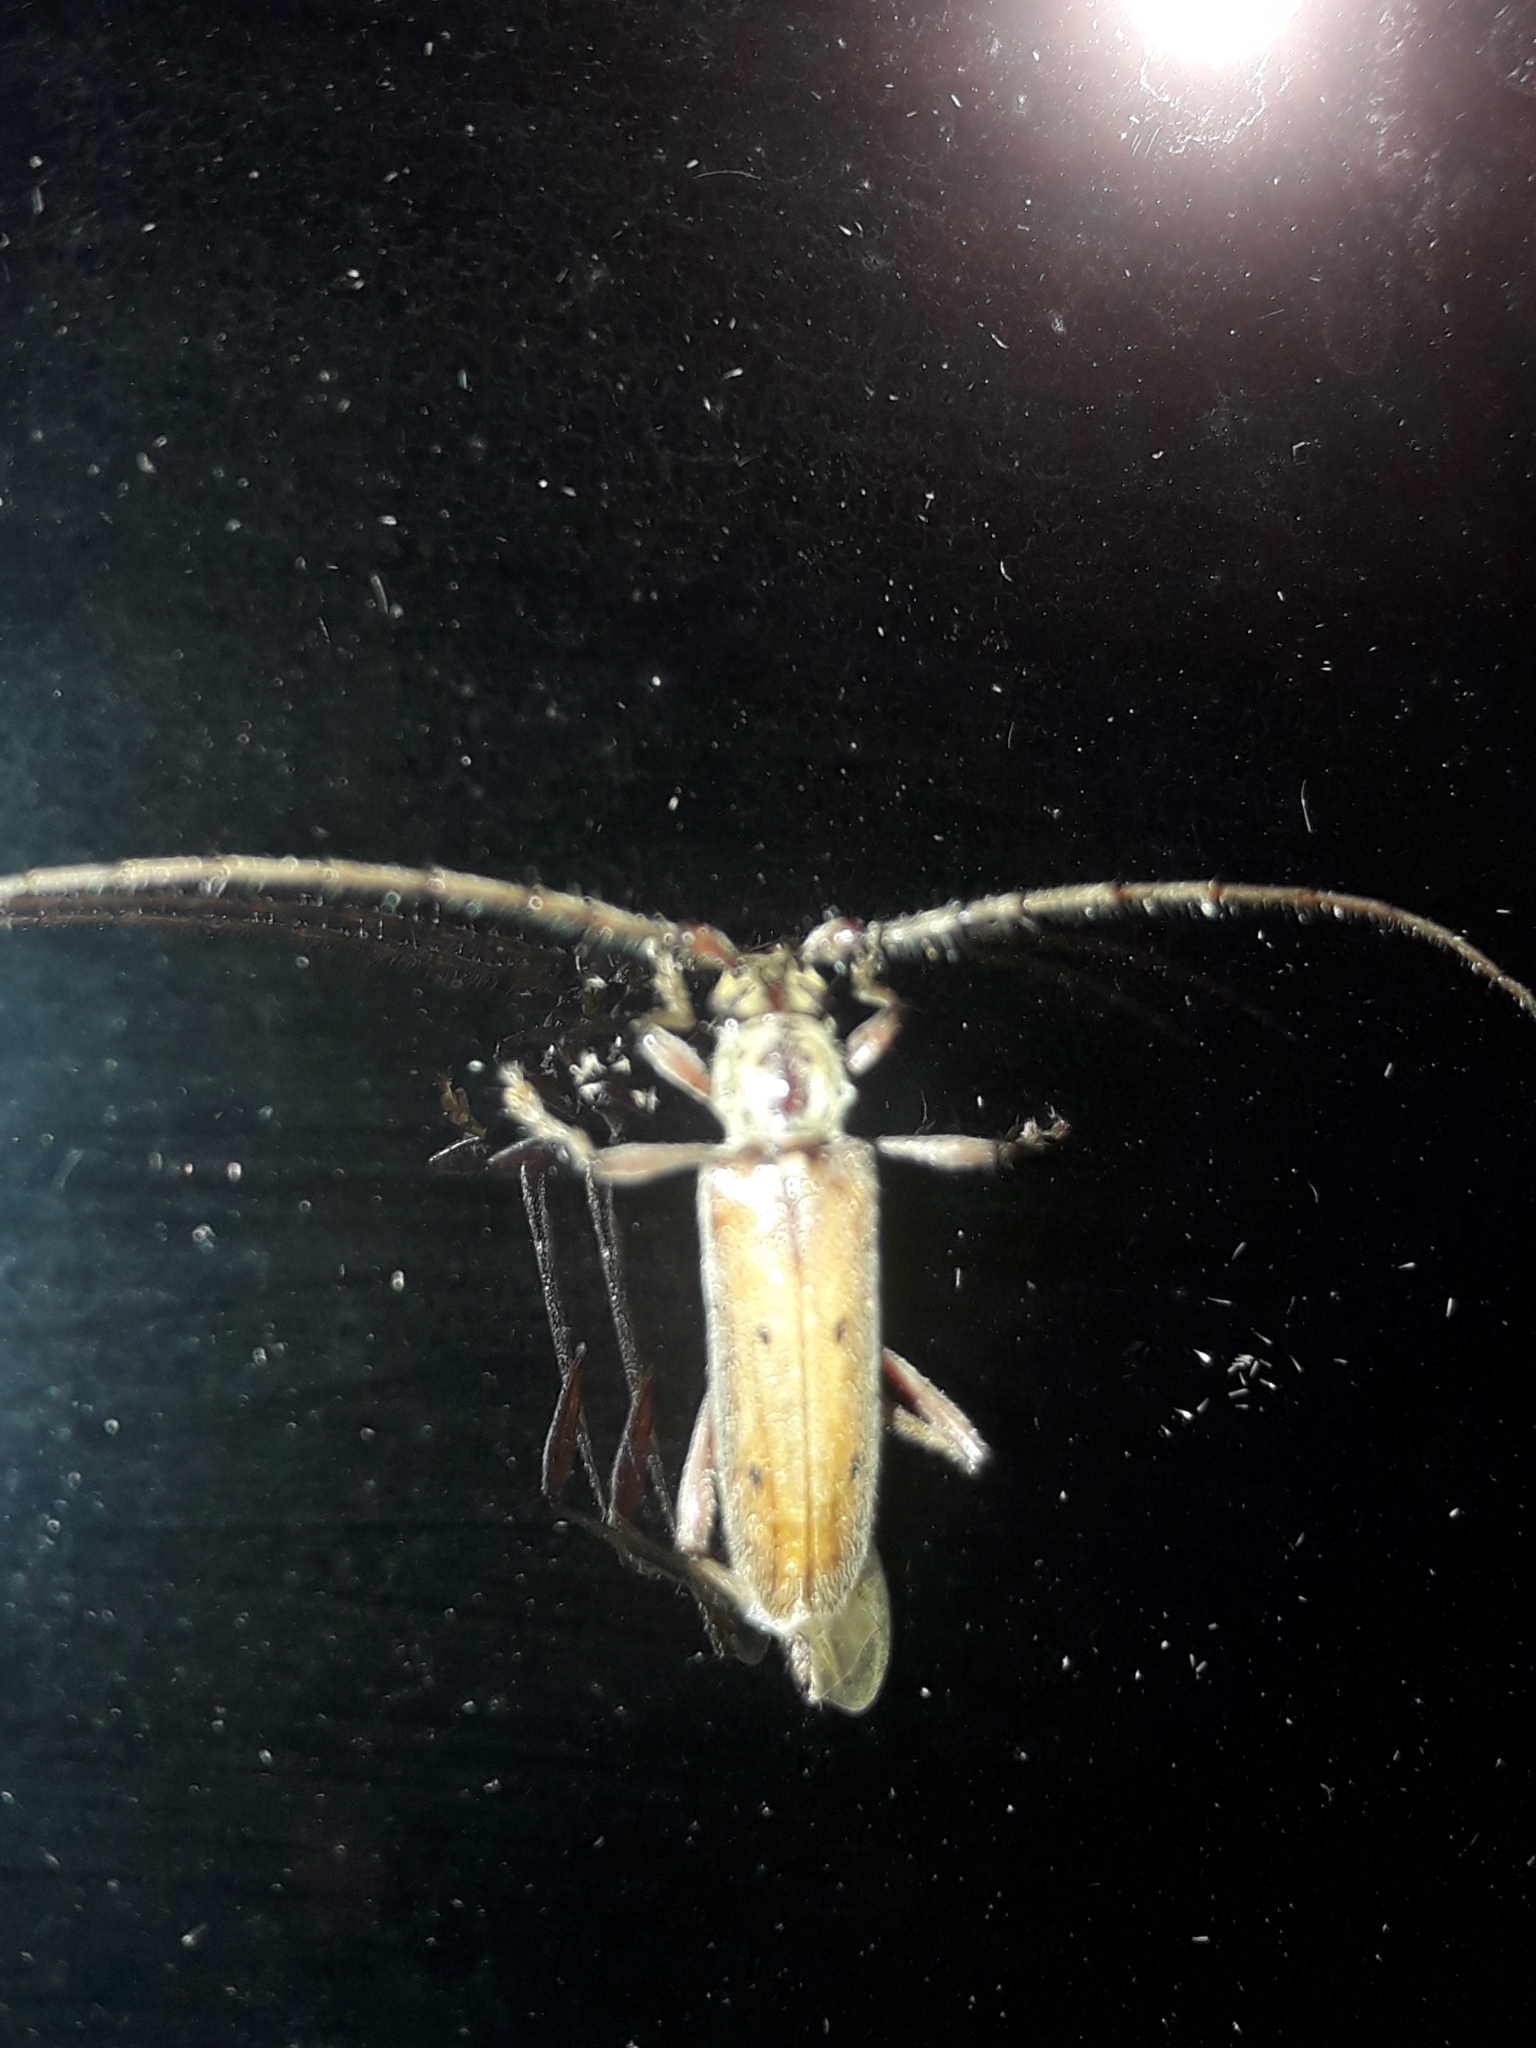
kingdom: Animalia
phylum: Arthropoda
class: Insecta
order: Coleoptera
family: Cerambycidae
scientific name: Cerambycidae
